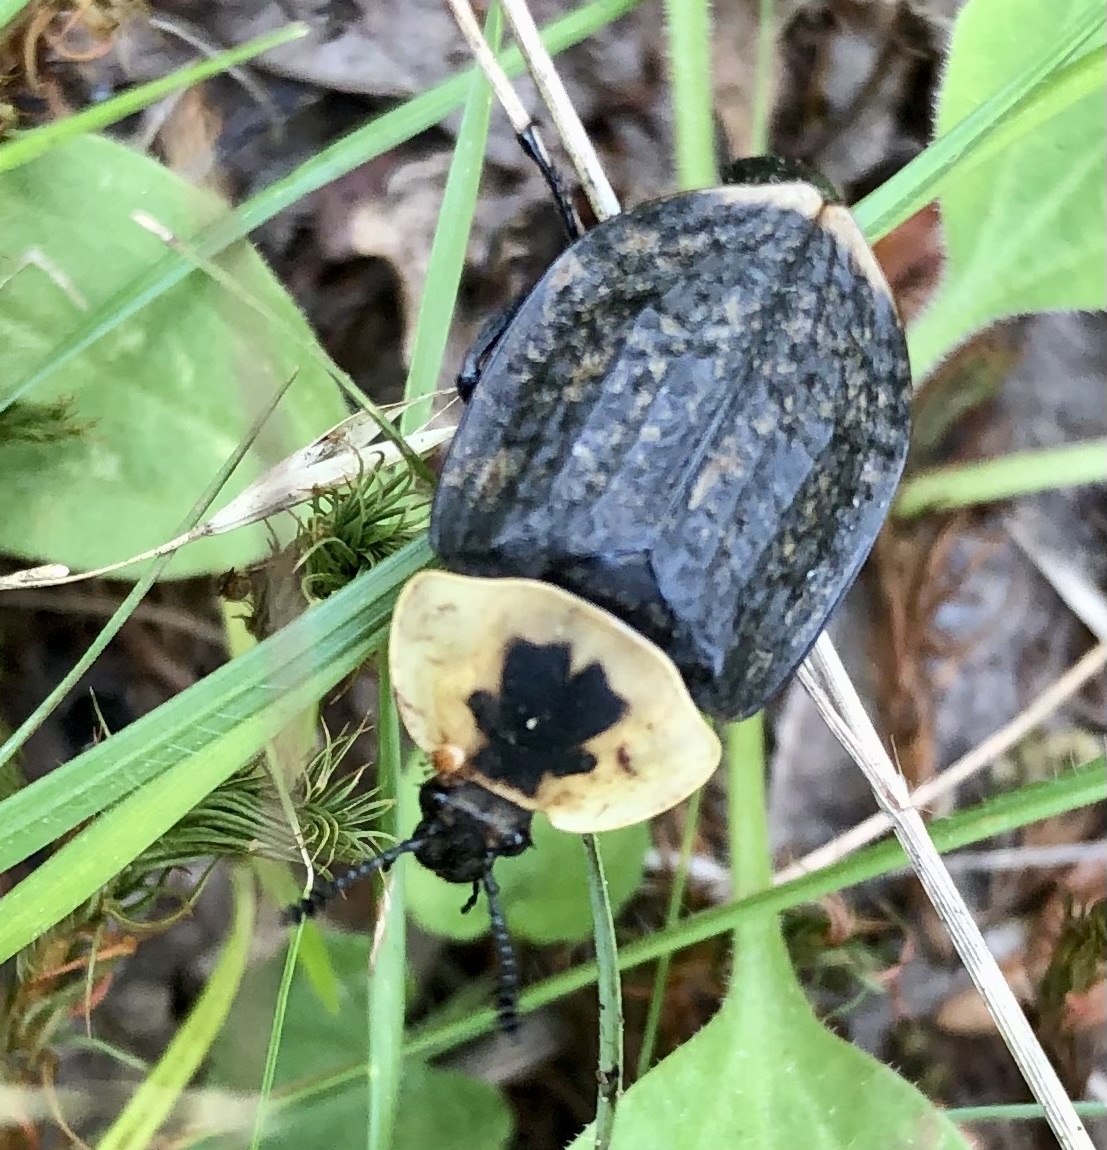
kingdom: Animalia
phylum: Arthropoda
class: Insecta
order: Coleoptera
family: Staphylinidae
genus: Necrophila
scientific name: Necrophila americana
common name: American carrion beetle
